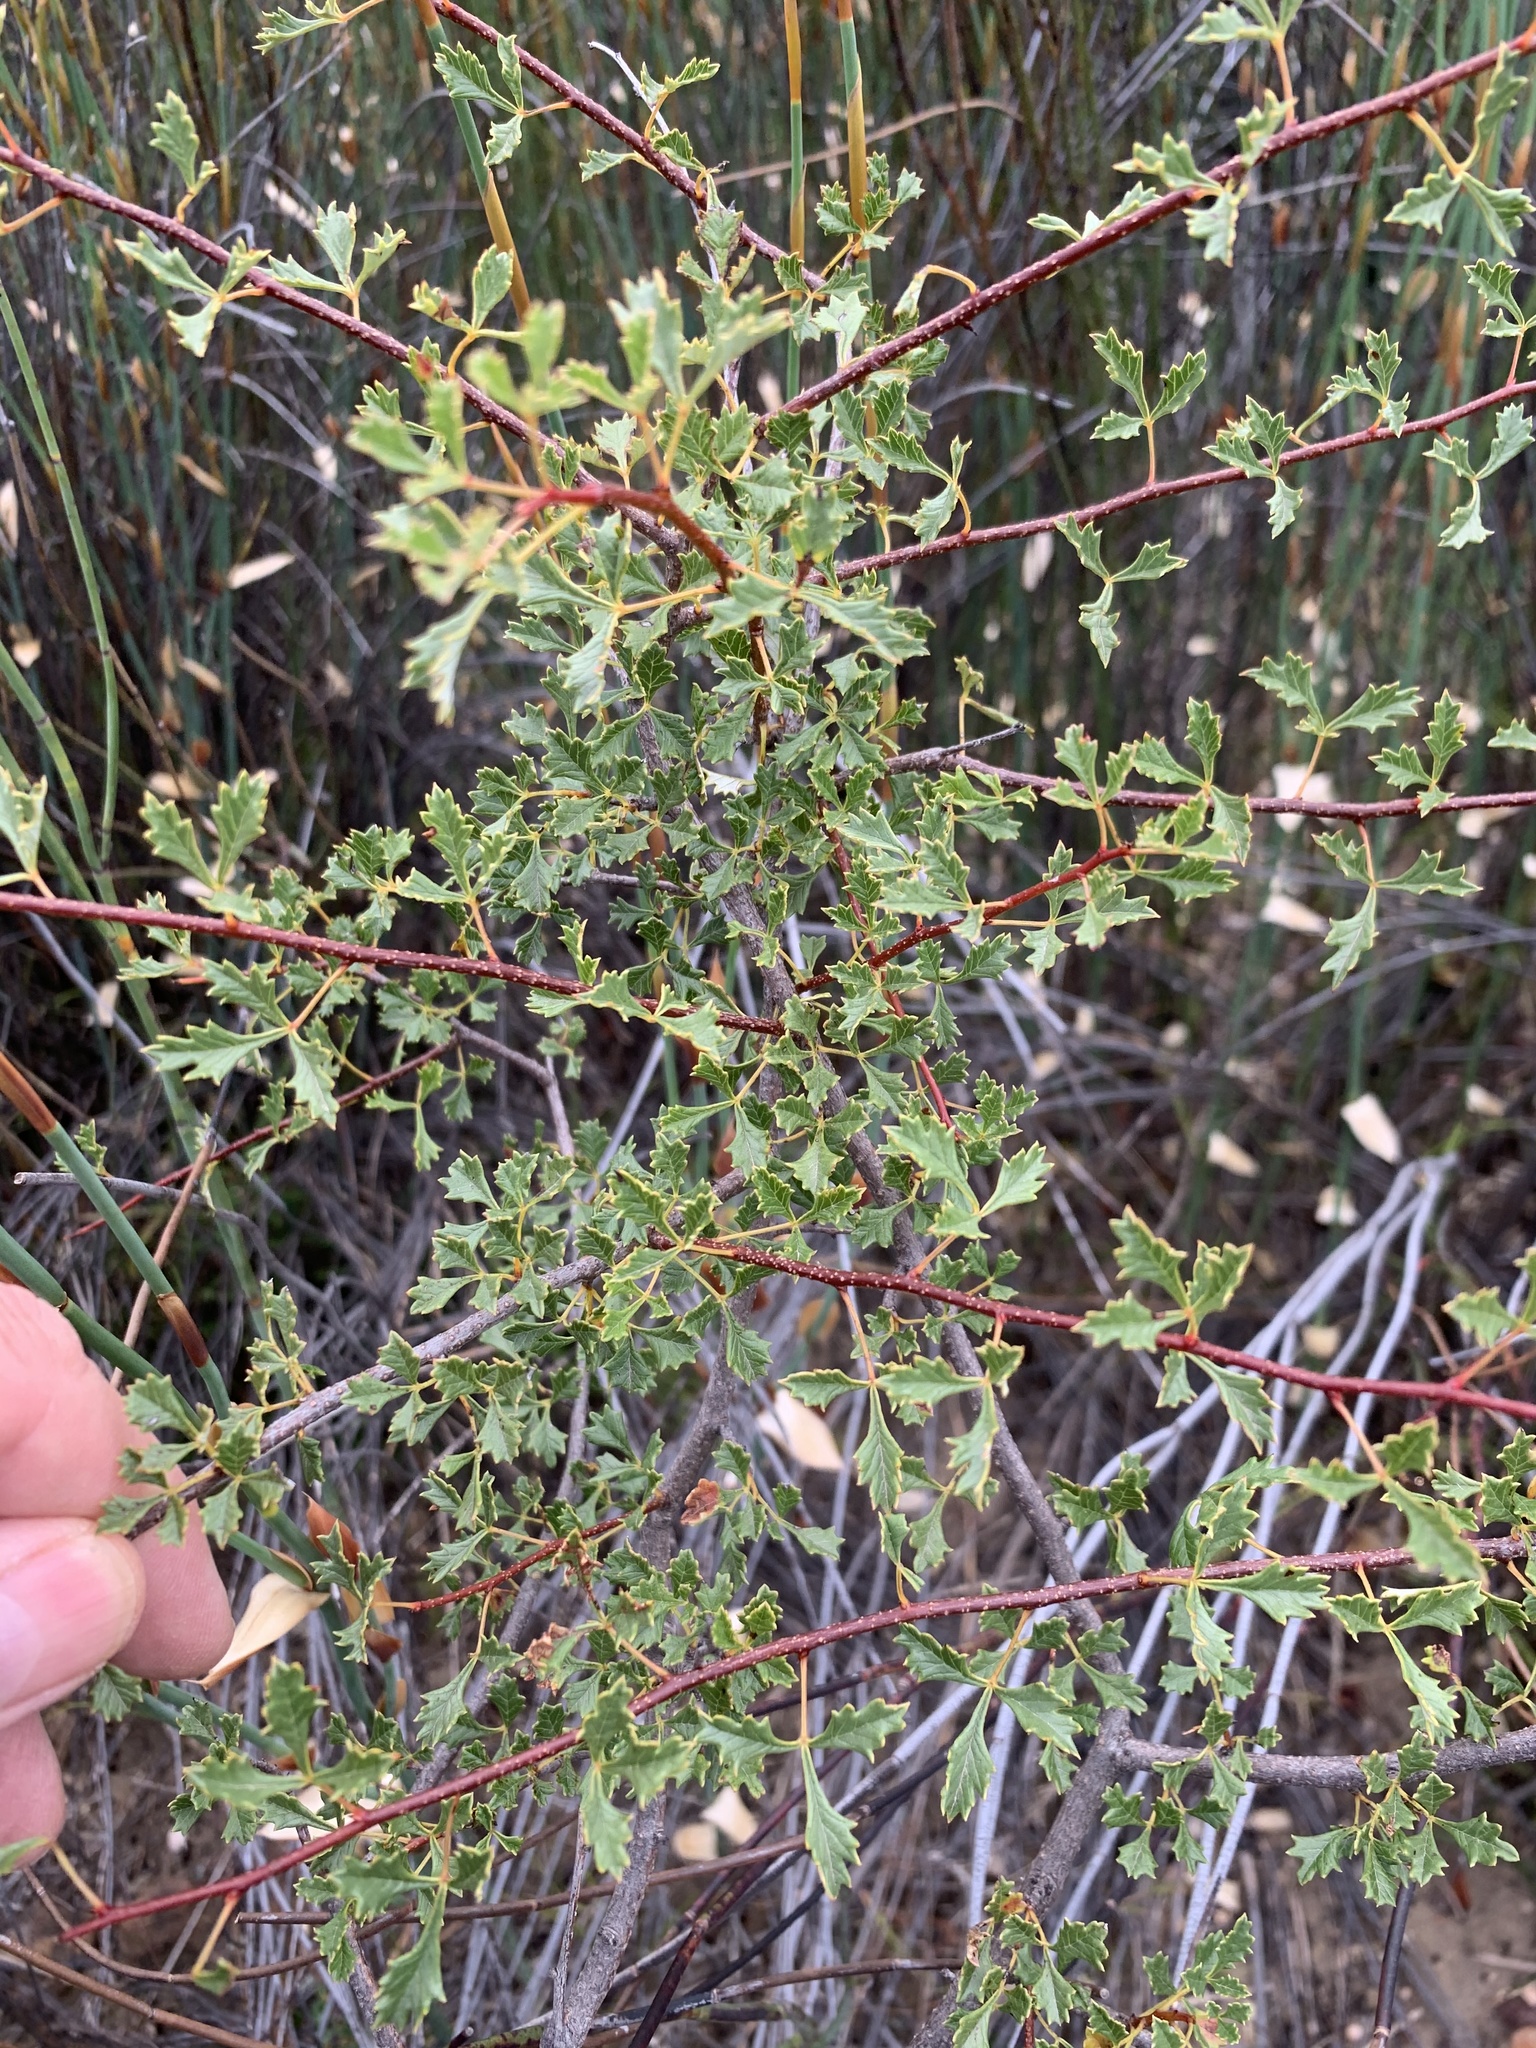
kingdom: Plantae
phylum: Tracheophyta
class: Magnoliopsida
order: Sapindales
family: Anacardiaceae
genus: Searsia
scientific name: Searsia dissecta
